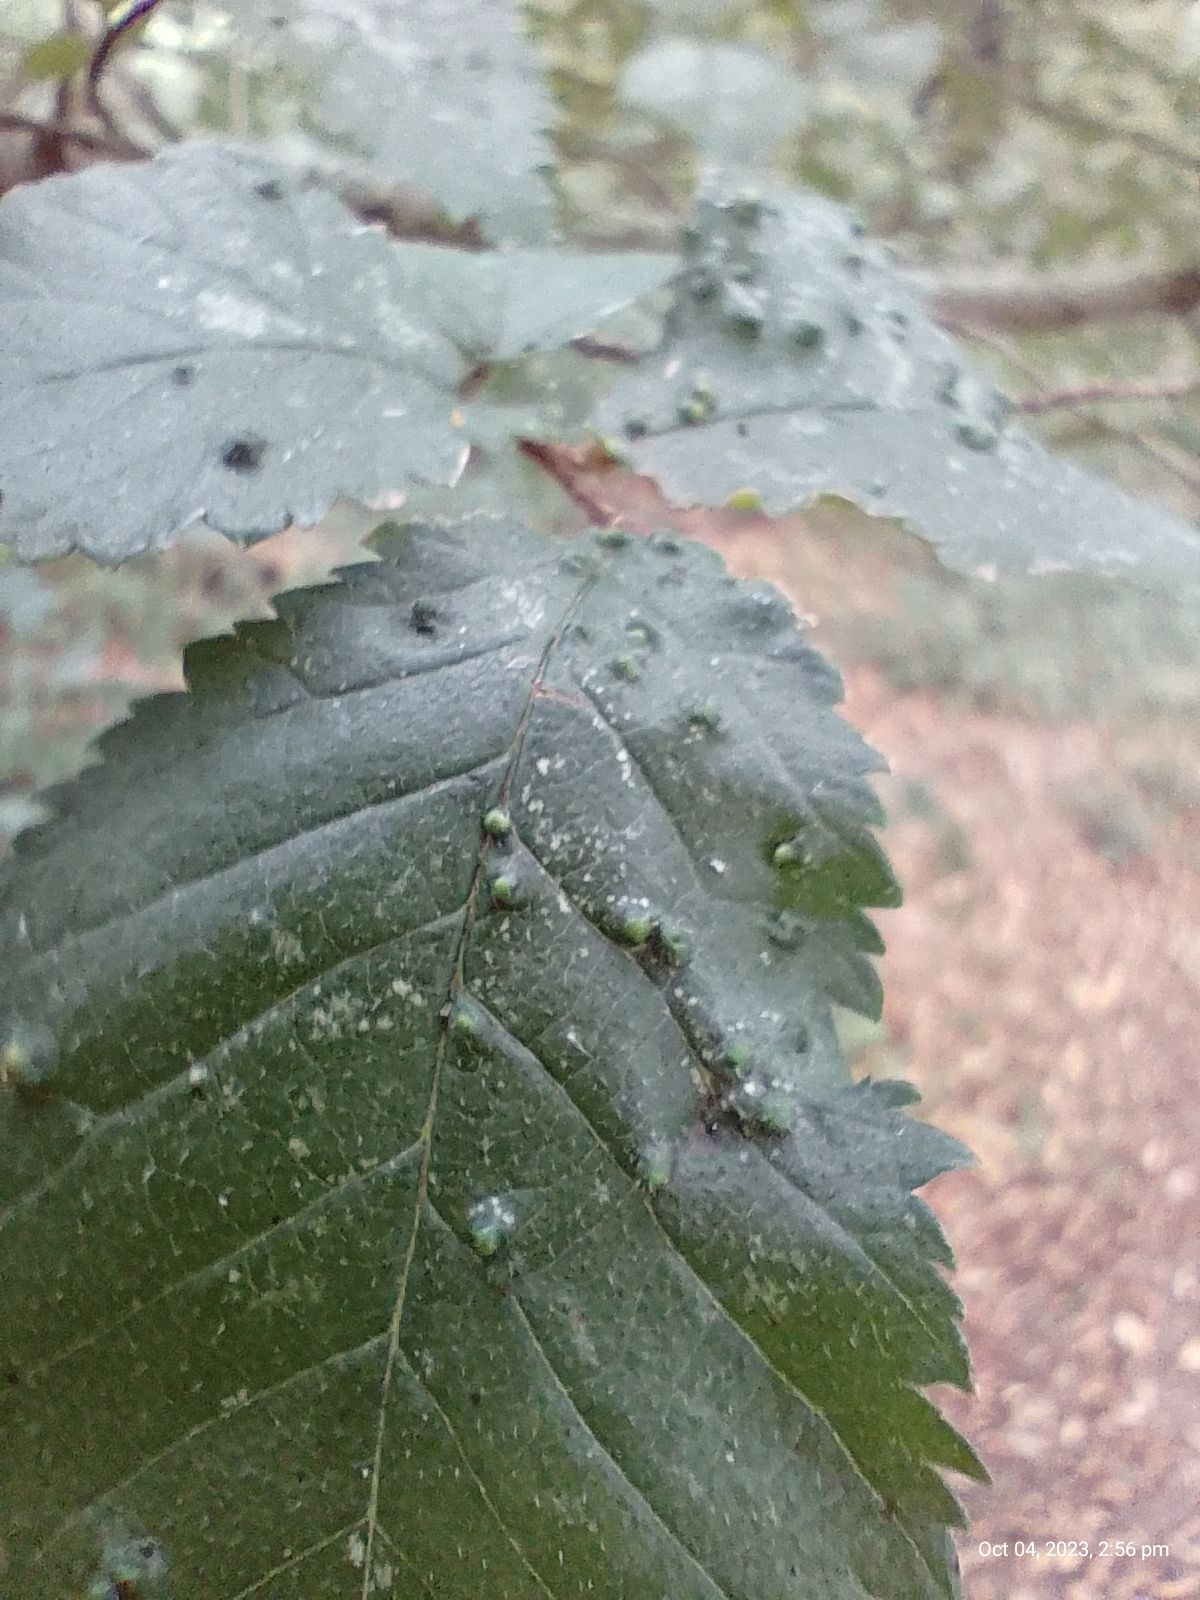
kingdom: Animalia
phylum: Arthropoda
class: Arachnida
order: Trombidiformes
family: Eriophyidae
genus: Aceria
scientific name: Aceria brevipunctata
